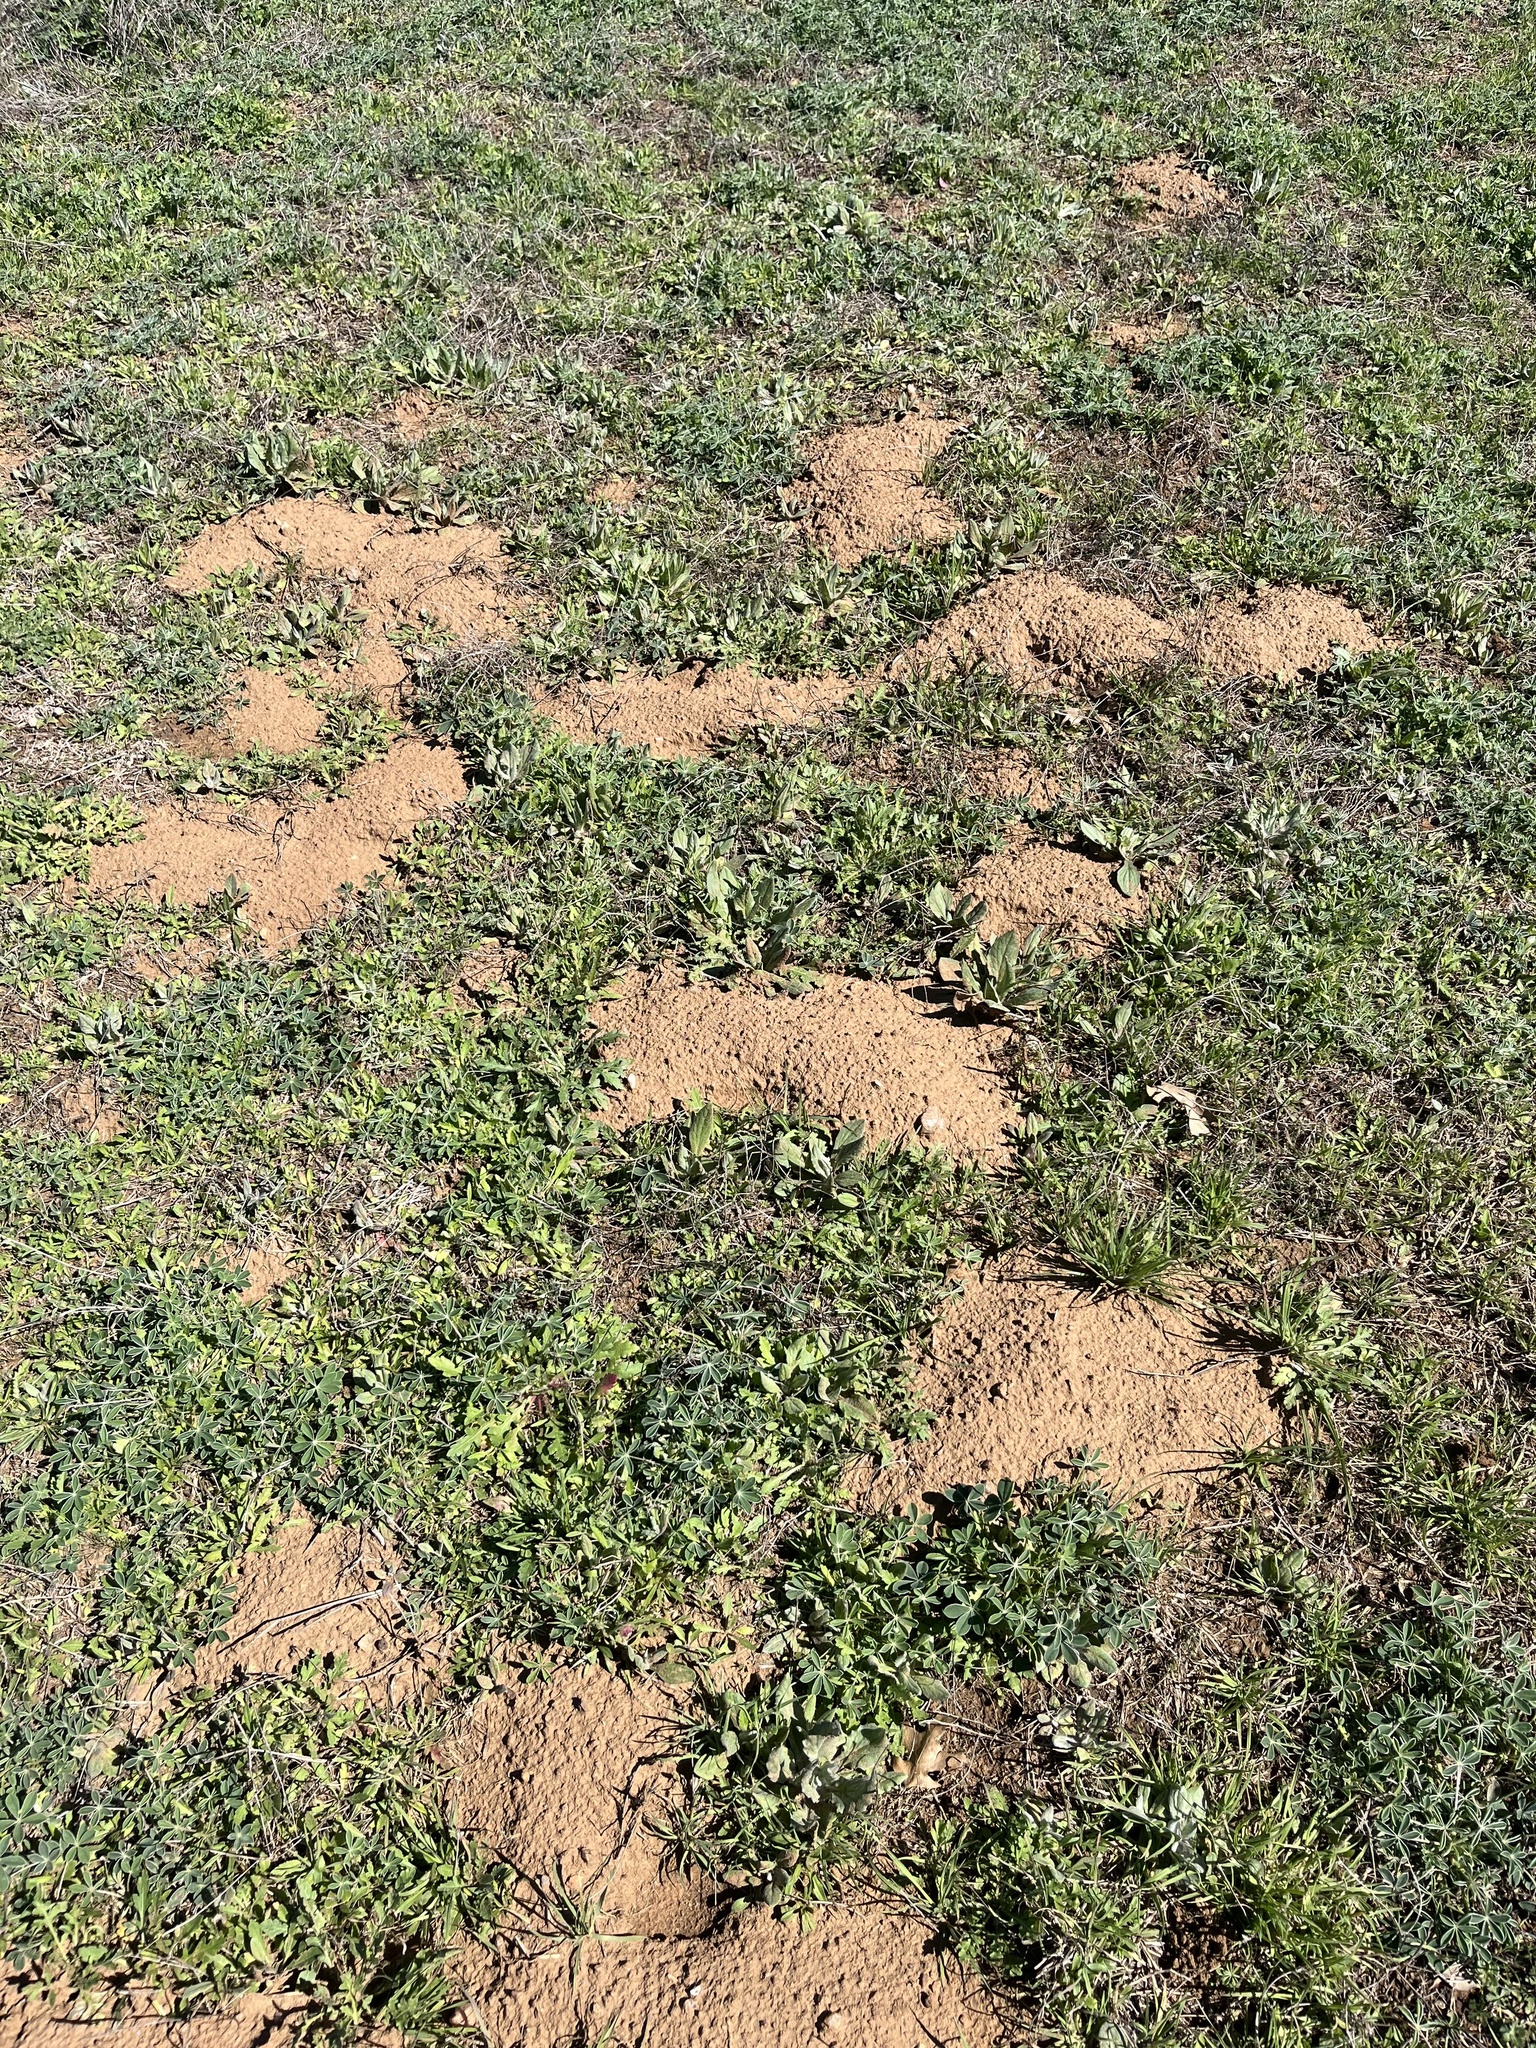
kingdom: Animalia
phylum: Chordata
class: Mammalia
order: Rodentia
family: Geomyidae
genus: Geomys
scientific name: Geomys texensis
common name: Llano pocket gopher
